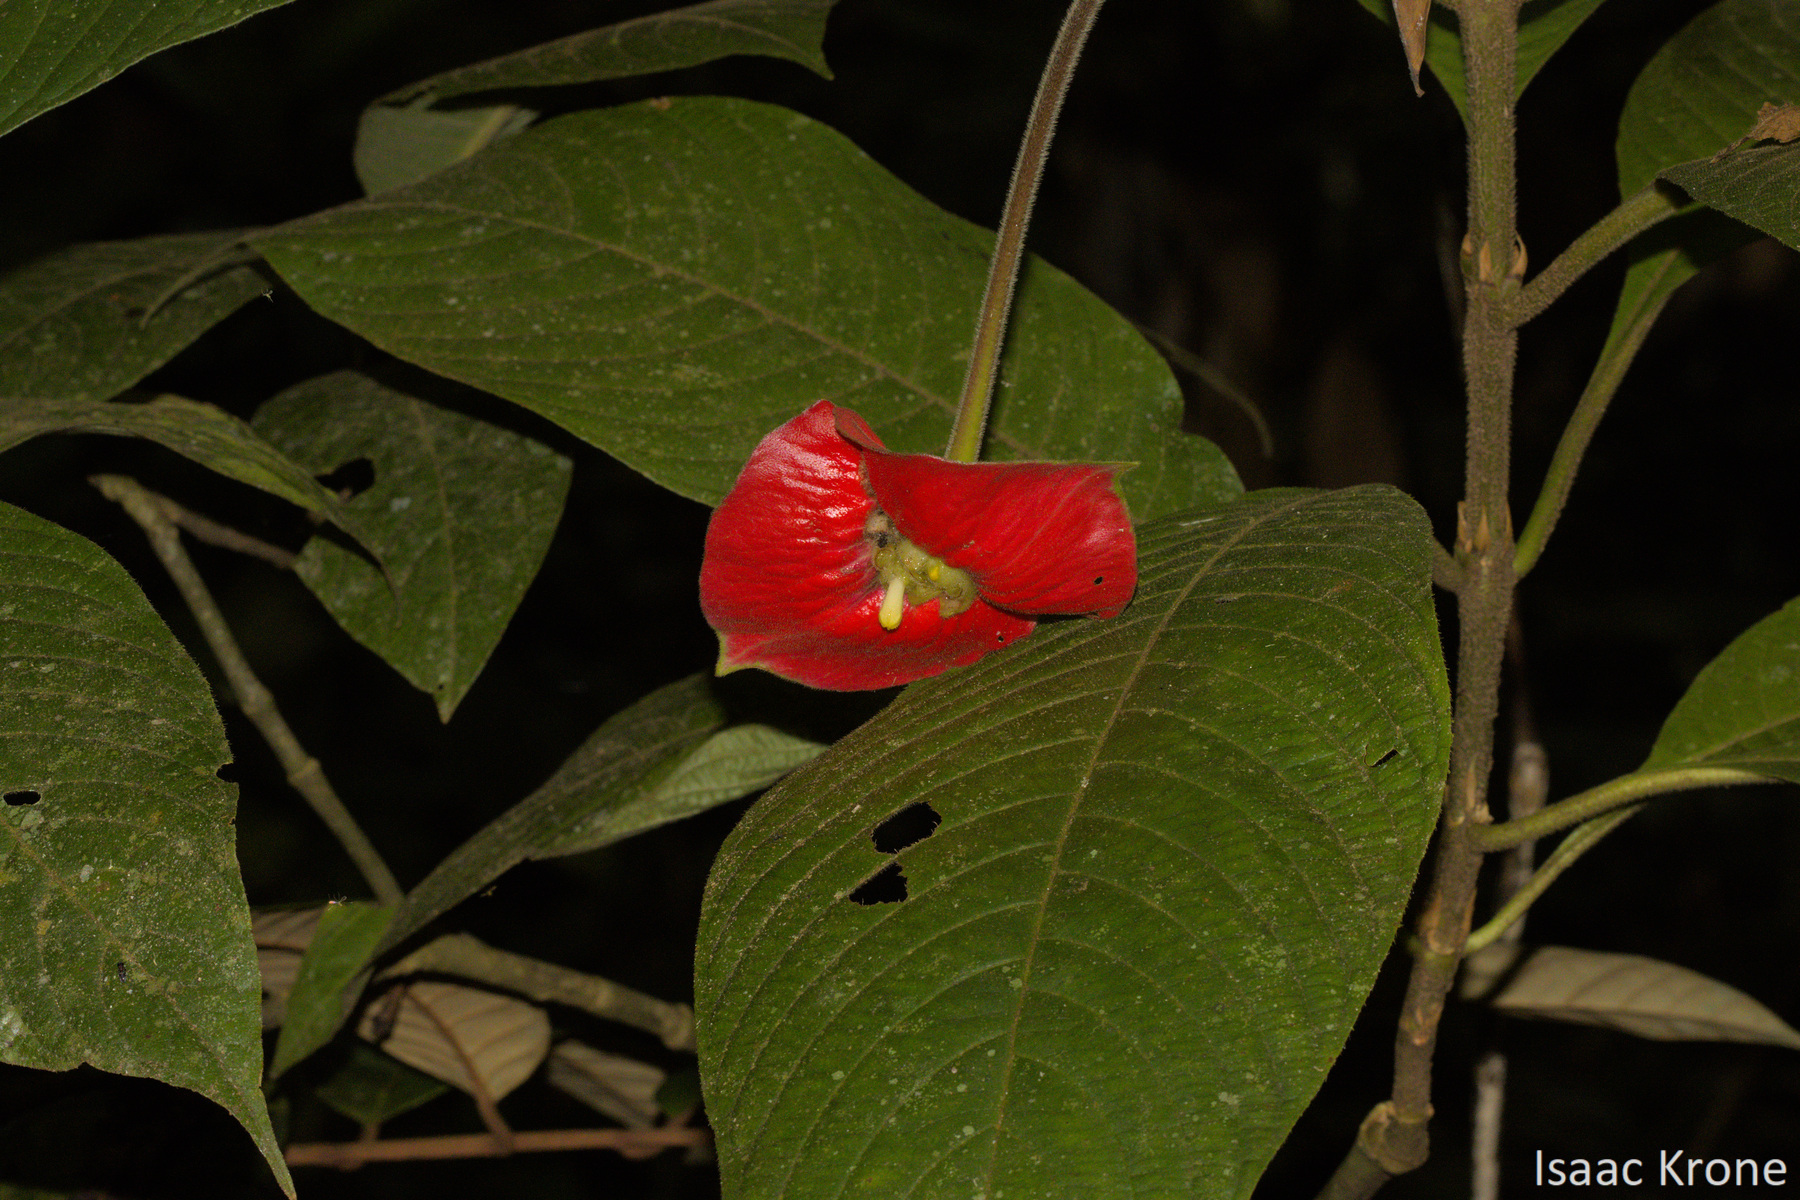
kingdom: Plantae
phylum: Tracheophyta
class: Magnoliopsida
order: Gentianales
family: Rubiaceae
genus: Palicourea
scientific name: Palicourea tomentosa
